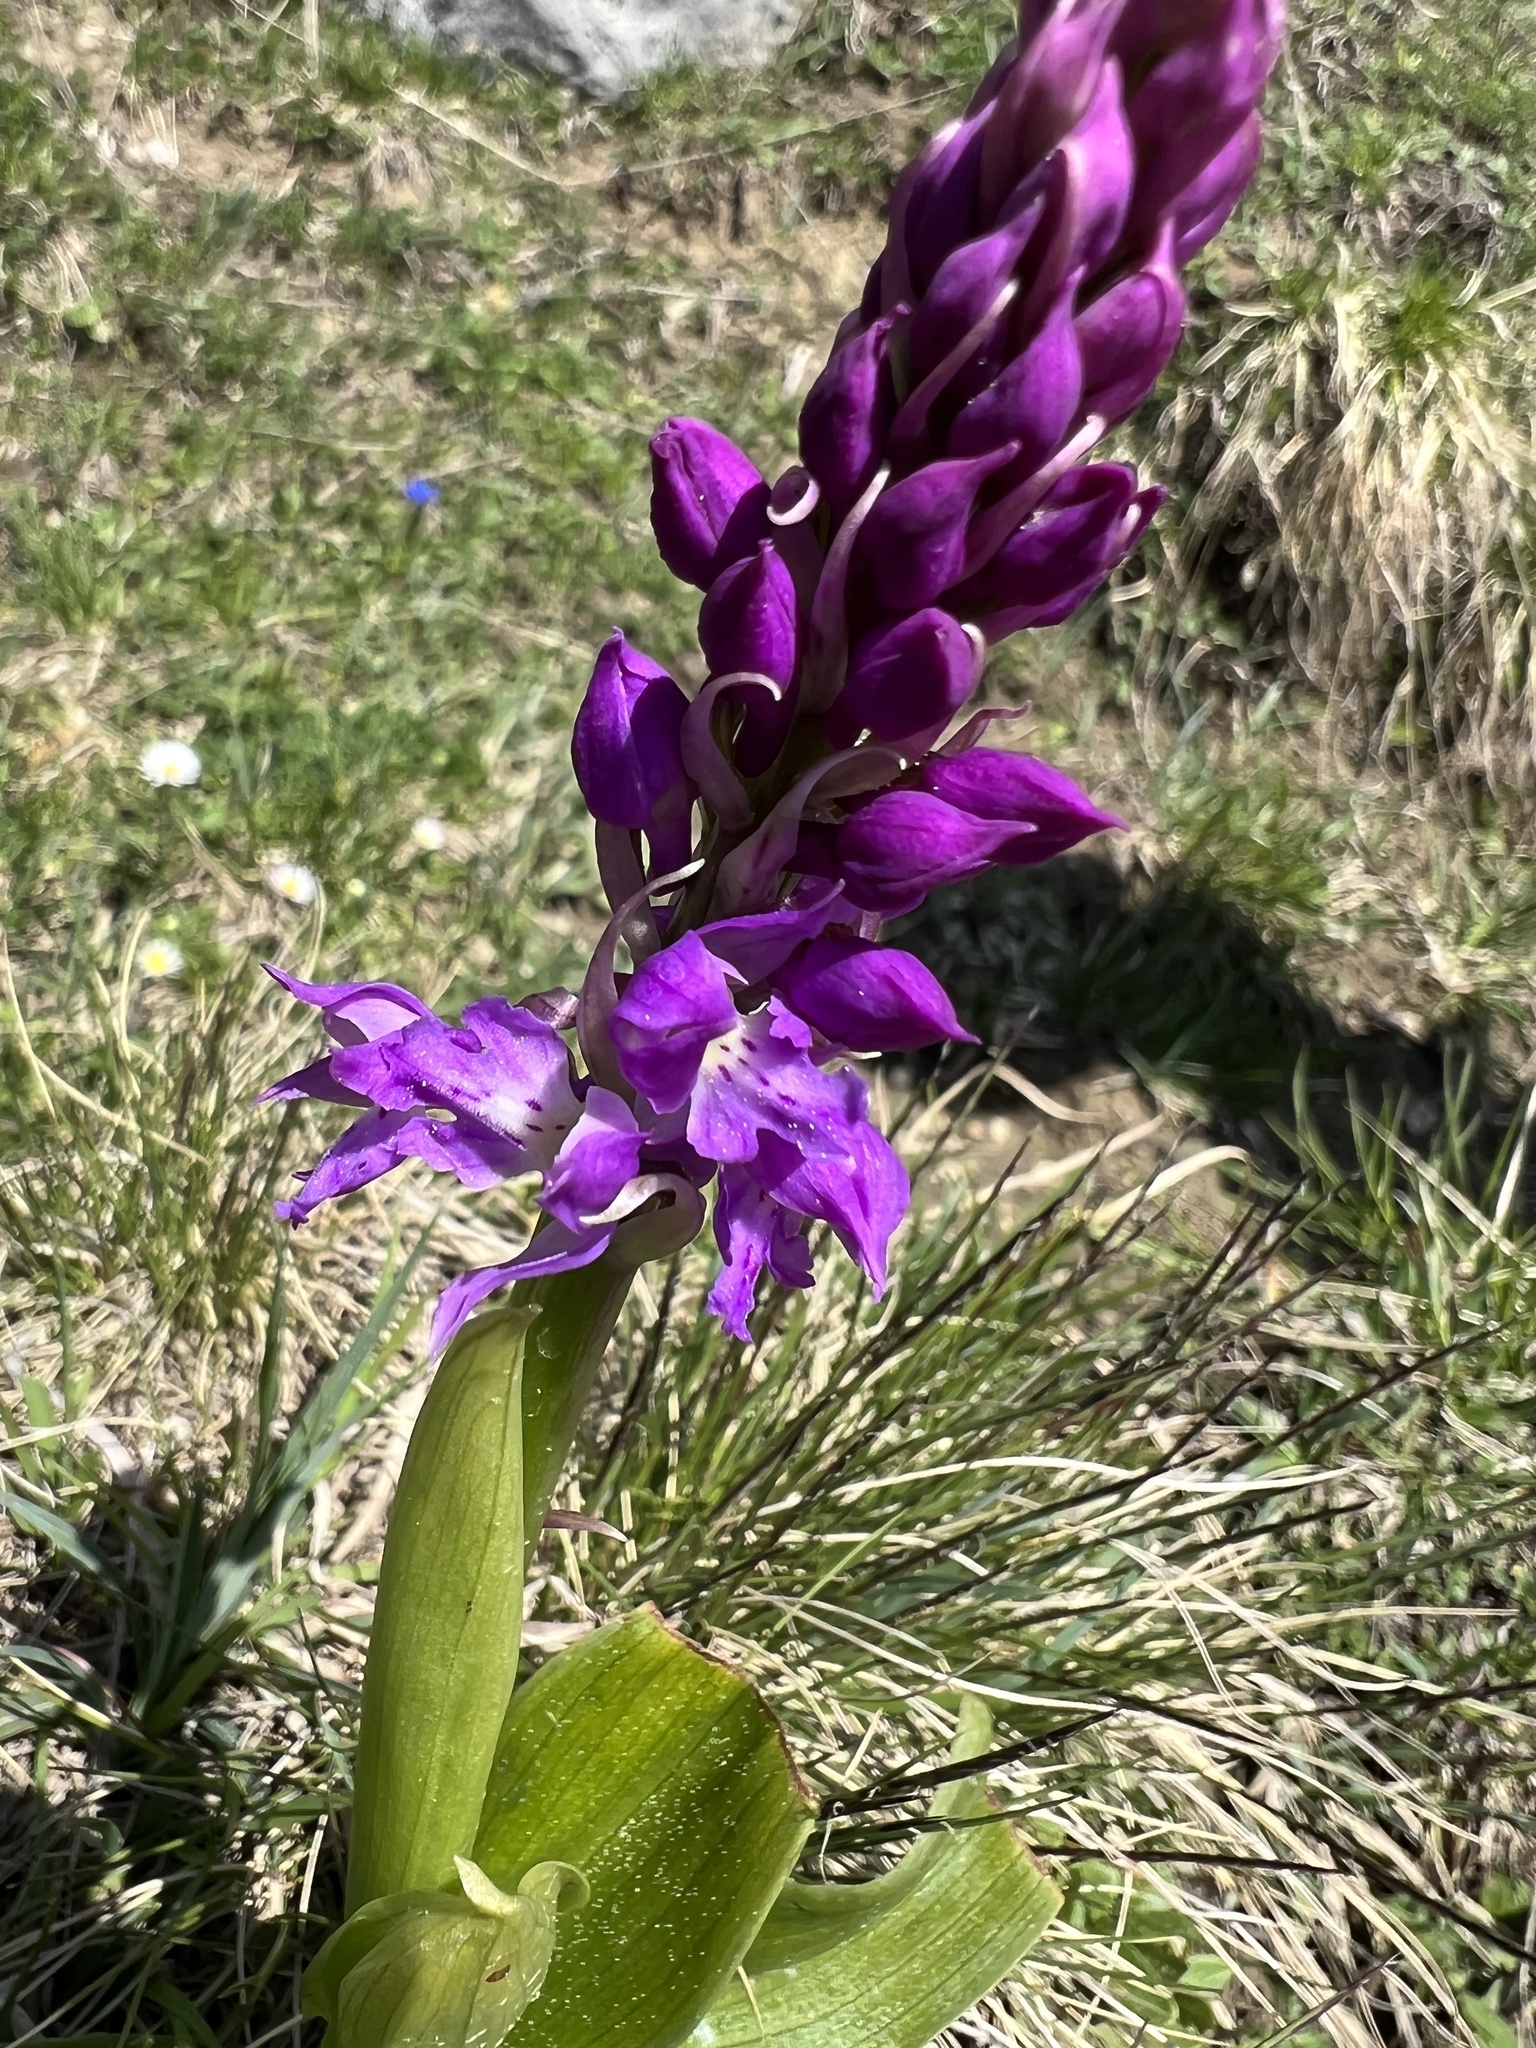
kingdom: Plantae
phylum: Tracheophyta
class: Liliopsida
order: Asparagales
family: Orchidaceae
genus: Orchis
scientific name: Orchis mascula
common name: Early-purple orchid
